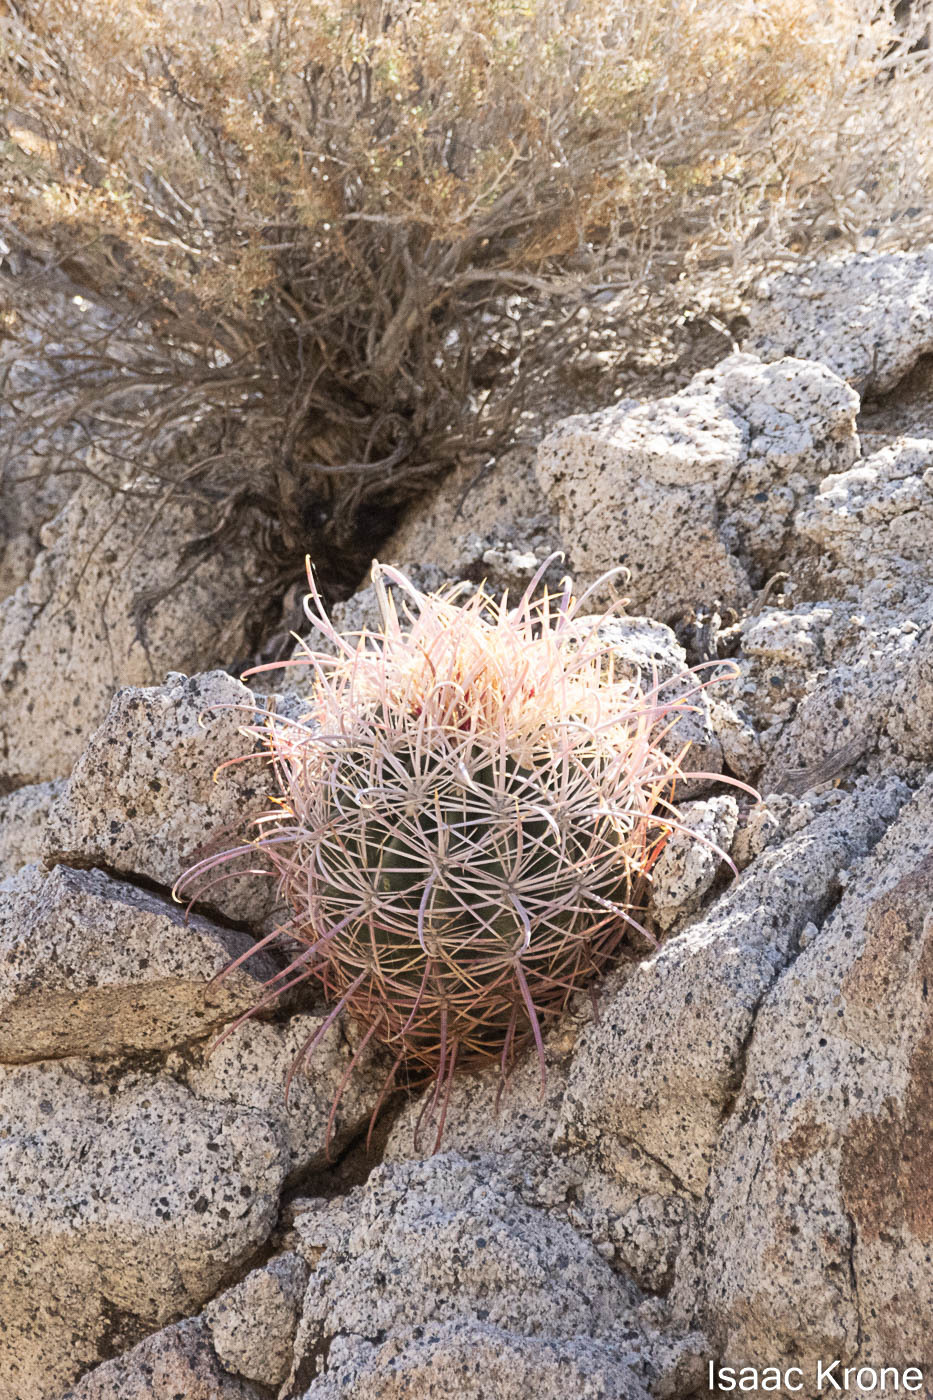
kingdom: Plantae
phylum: Tracheophyta
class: Magnoliopsida
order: Caryophyllales
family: Cactaceae
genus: Ferocactus
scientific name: Ferocactus cylindraceus
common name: California barrel cactus
